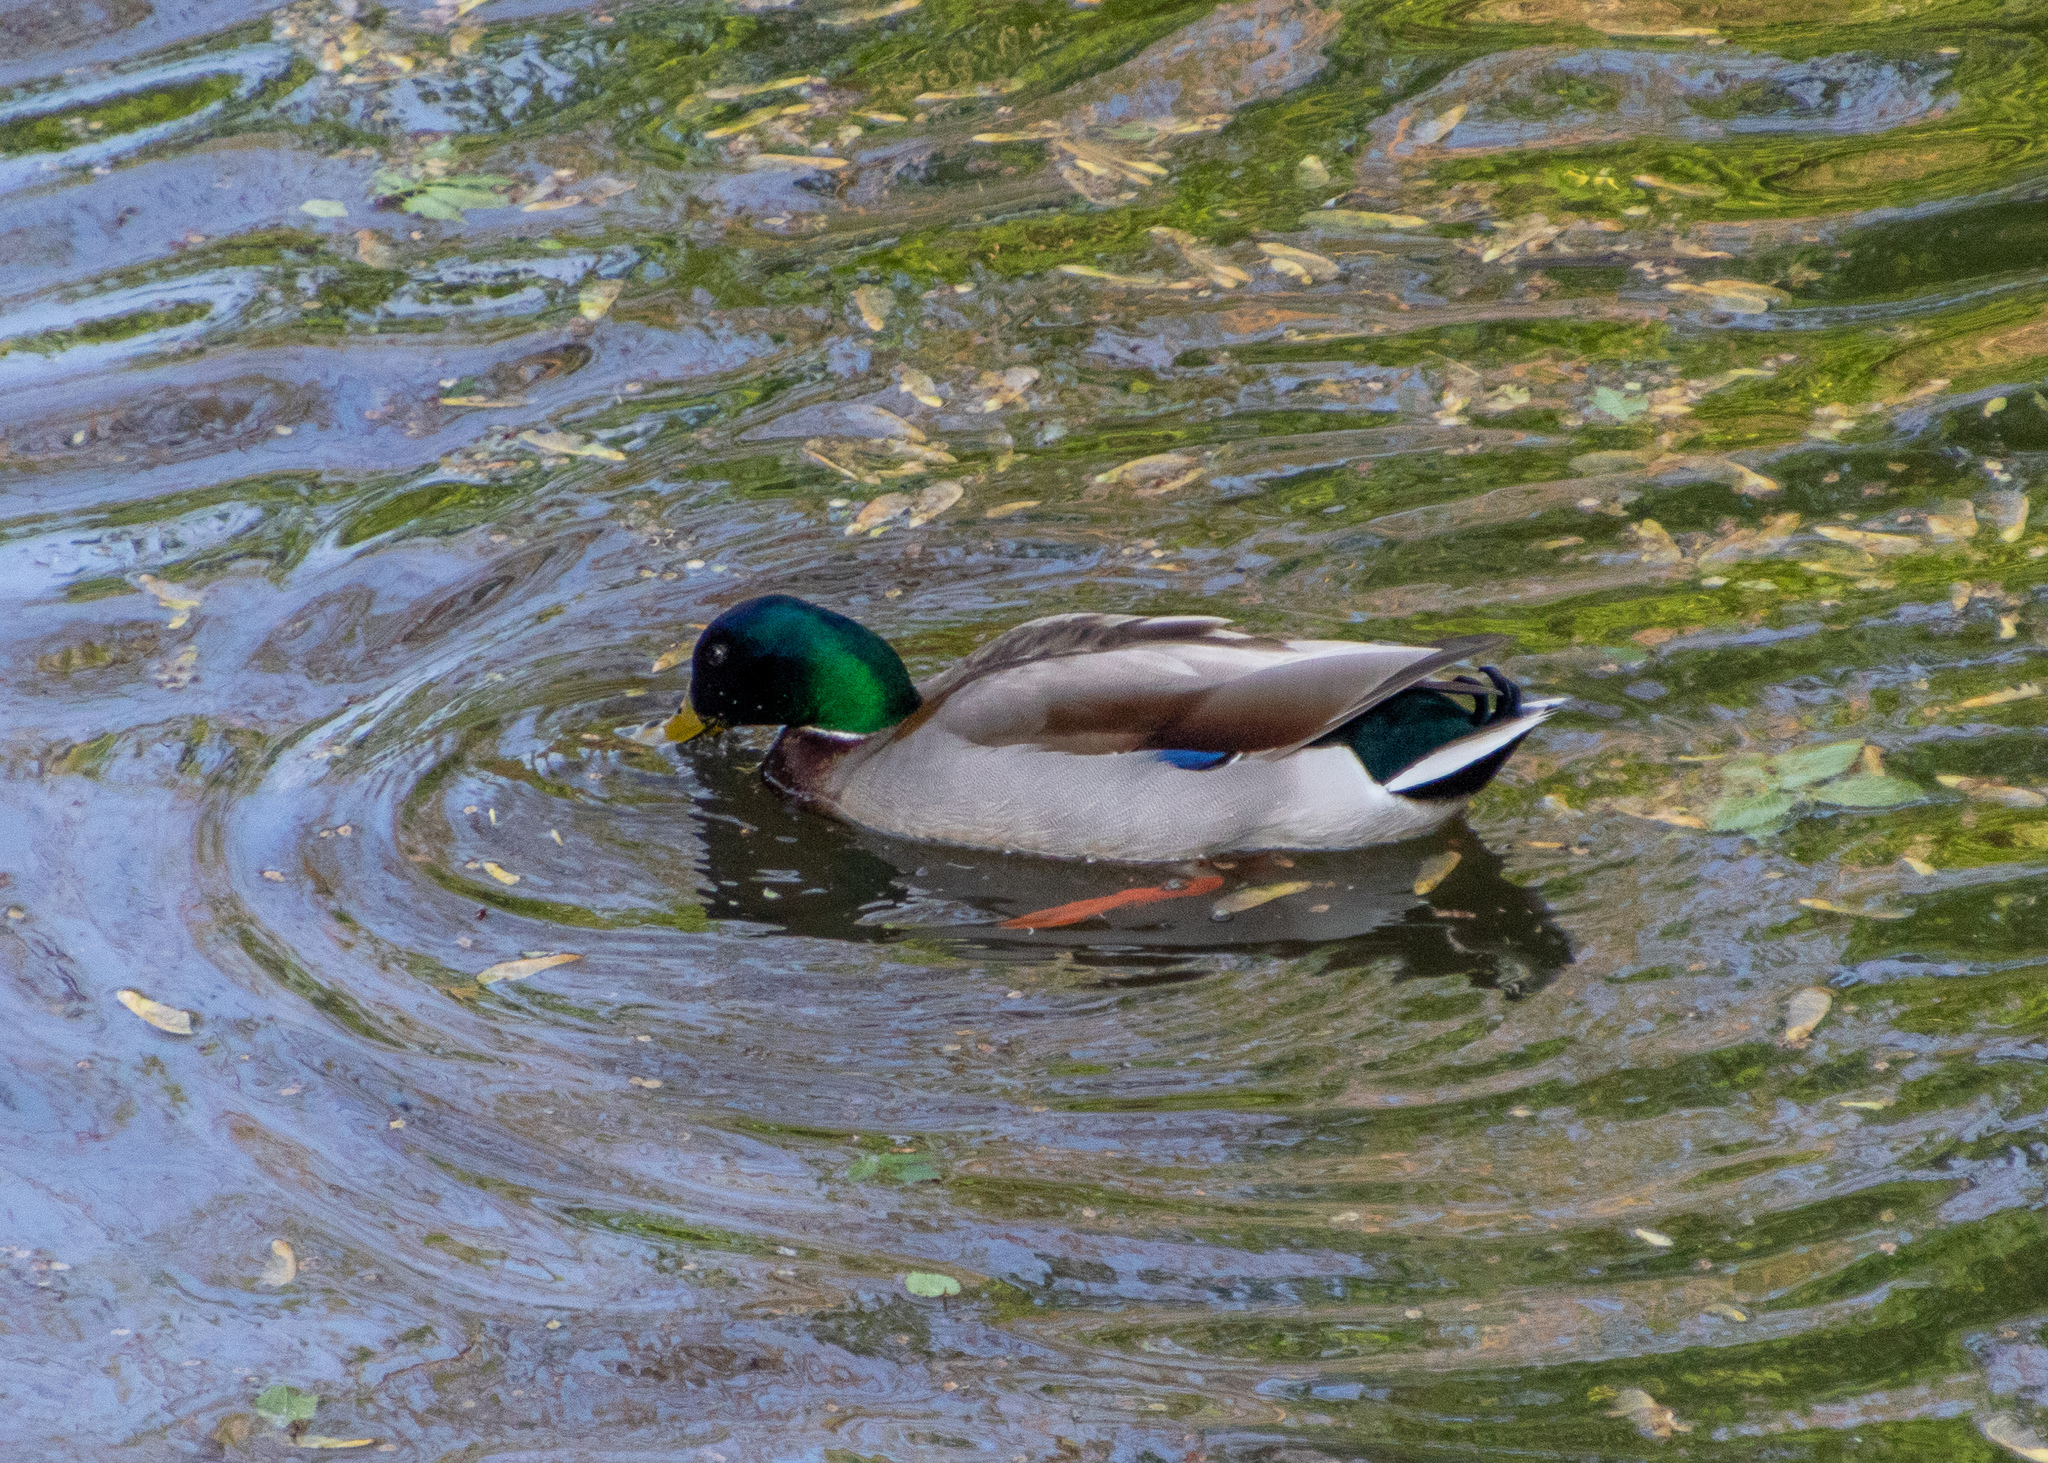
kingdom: Animalia
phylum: Chordata
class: Aves
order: Anseriformes
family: Anatidae
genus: Anas
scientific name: Anas platyrhynchos
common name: Mallard
